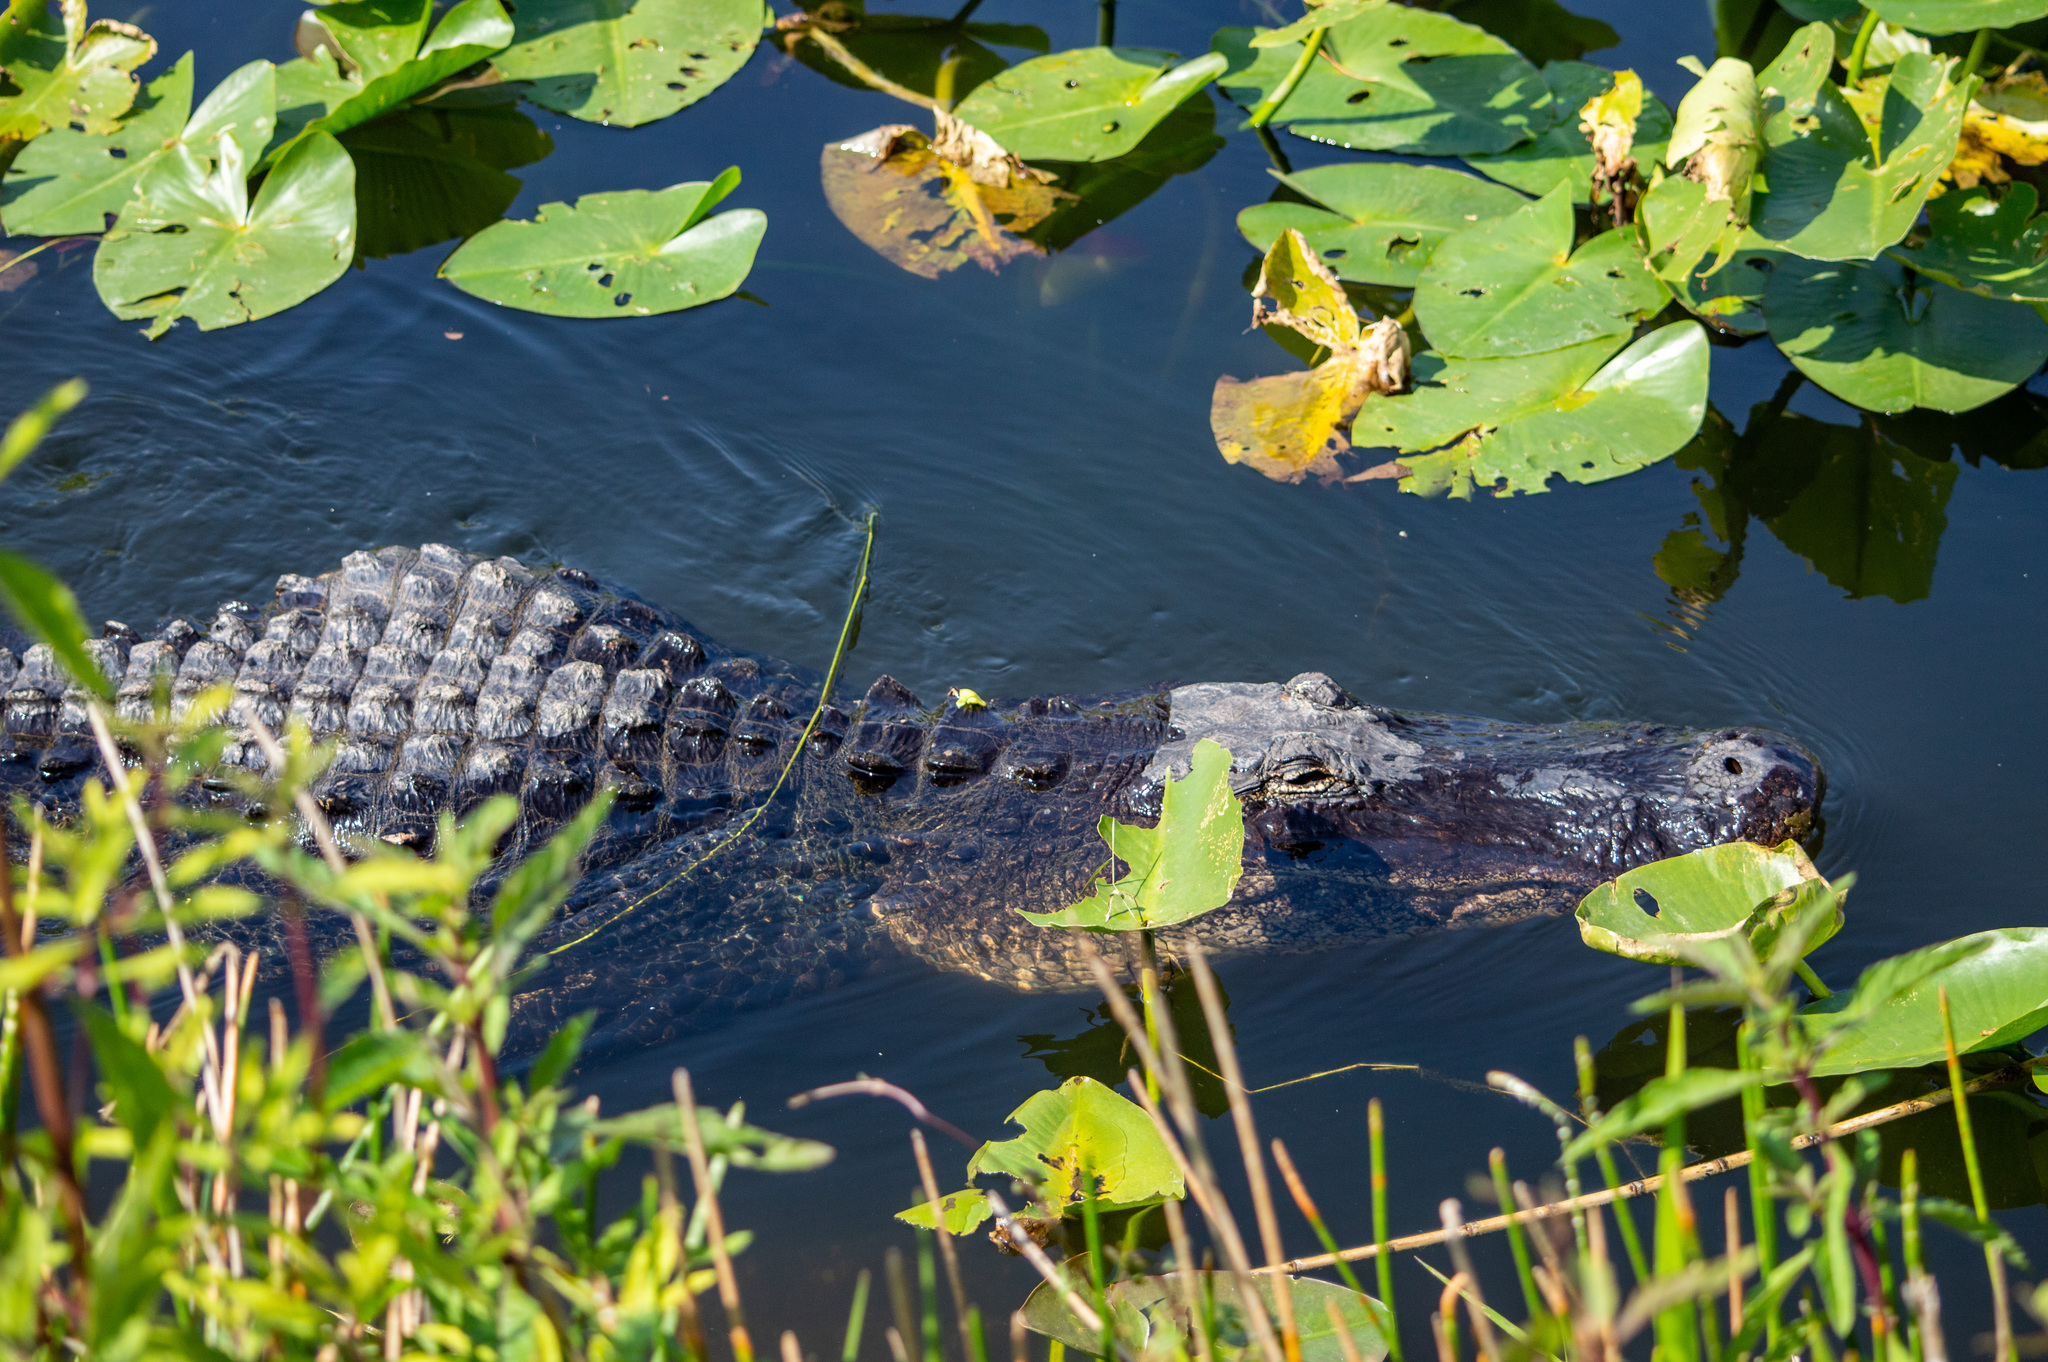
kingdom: Animalia
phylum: Chordata
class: Crocodylia
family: Alligatoridae
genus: Alligator
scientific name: Alligator mississippiensis
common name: American alligator
